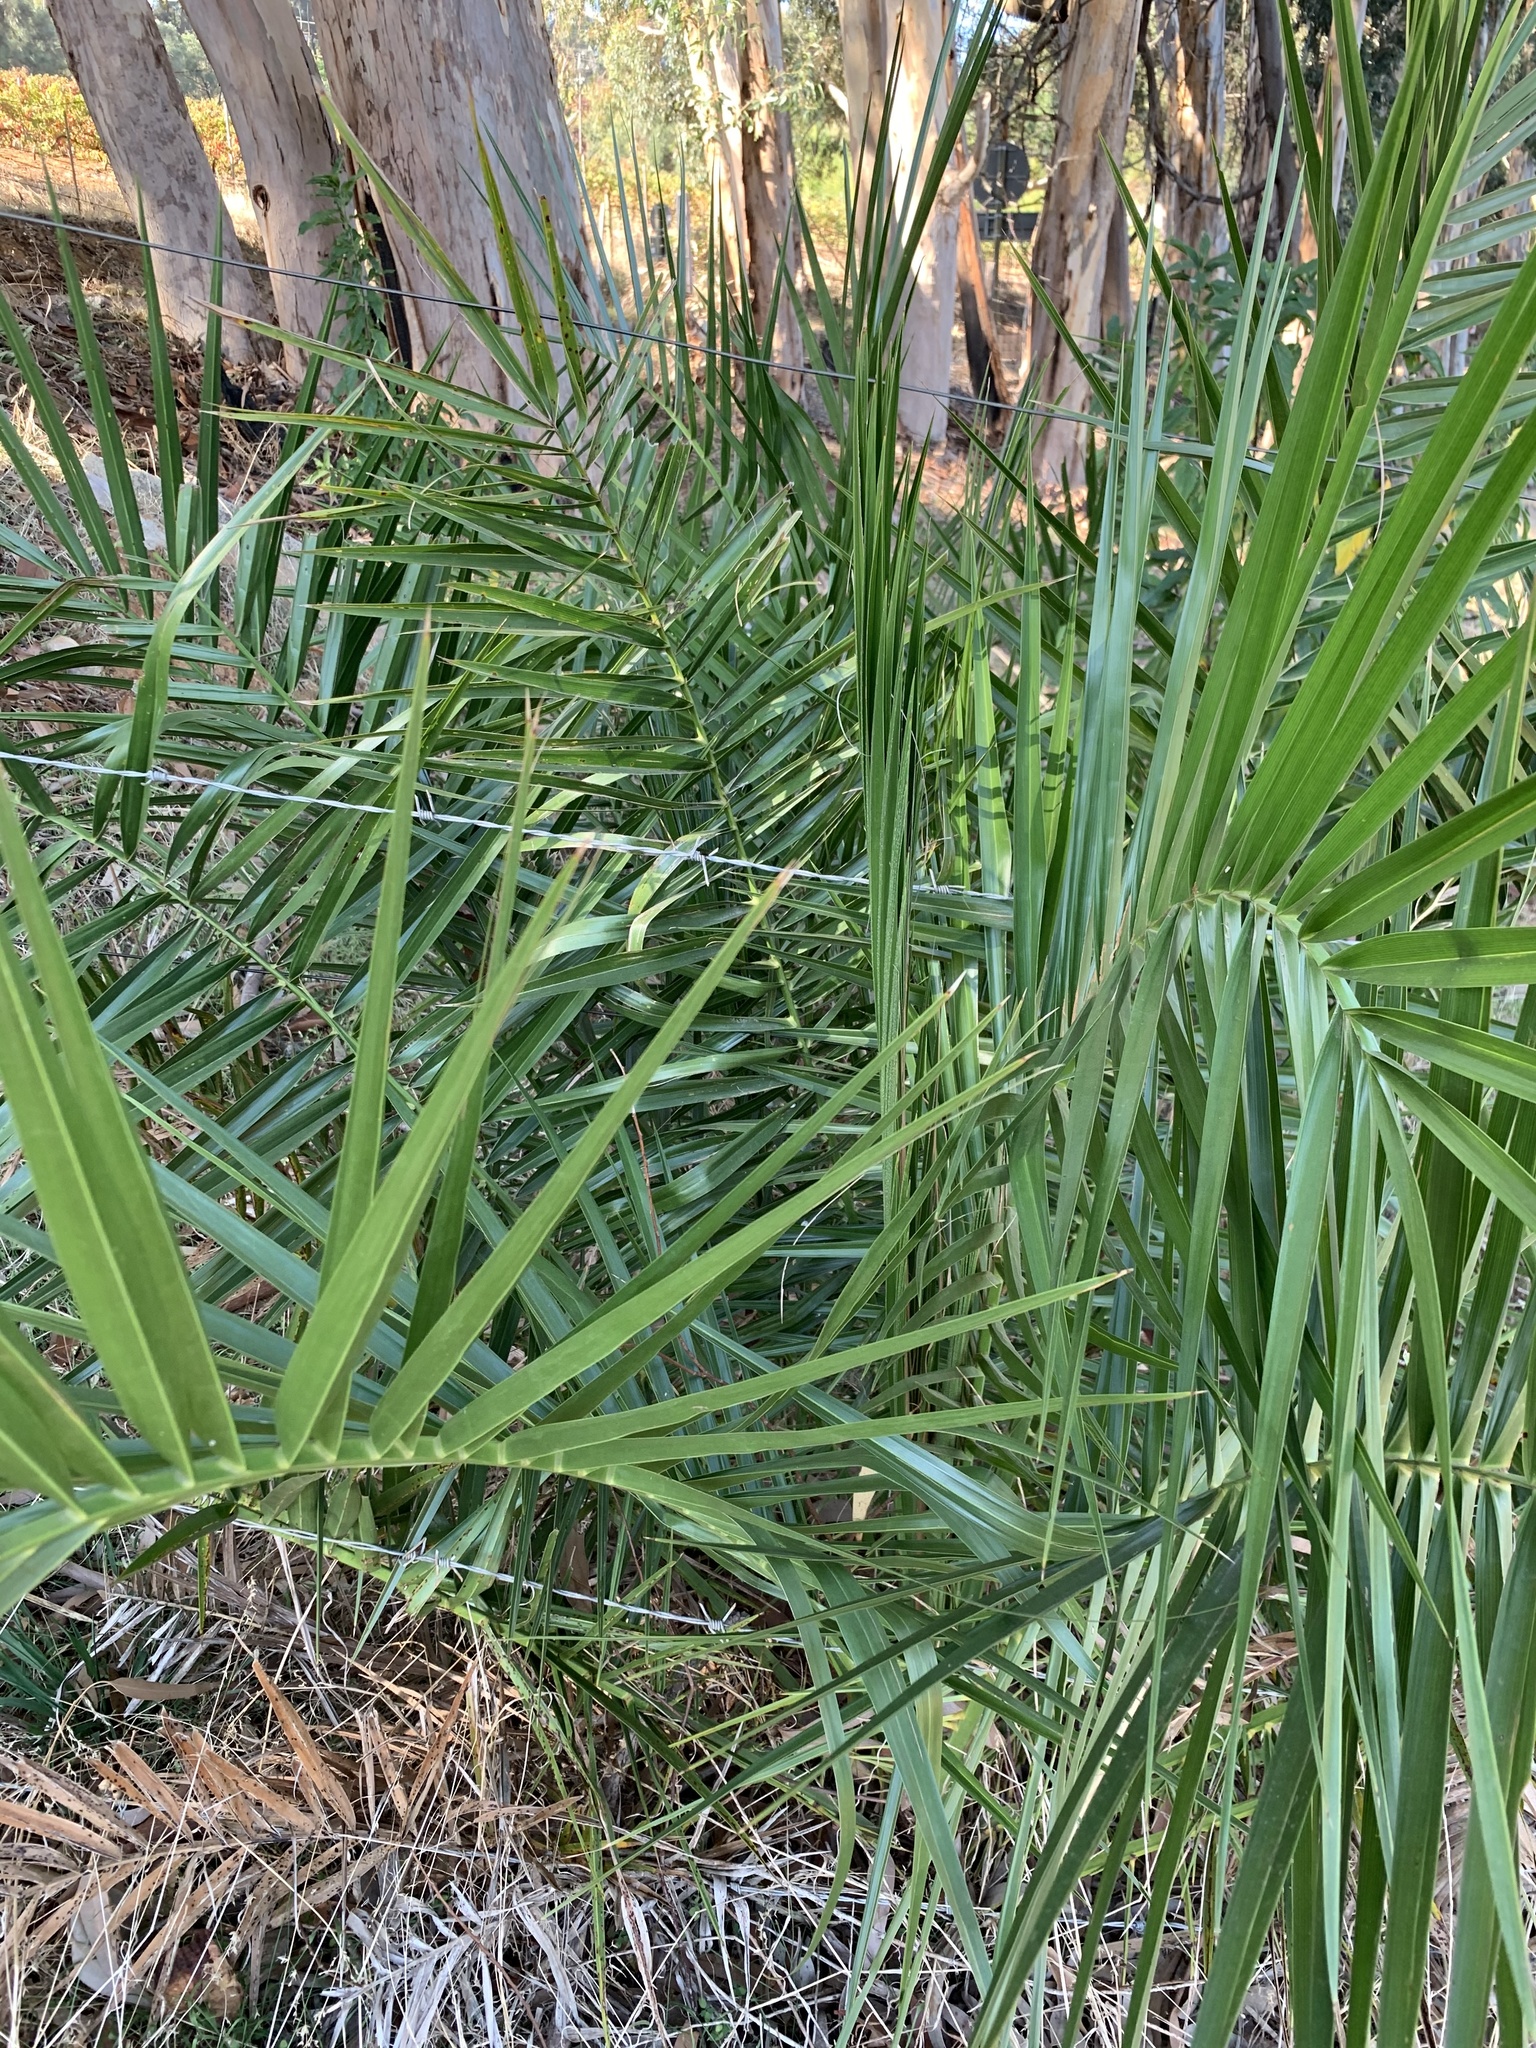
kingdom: Plantae
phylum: Tracheophyta
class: Liliopsida
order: Arecales
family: Arecaceae
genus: Phoenix
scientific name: Phoenix canariensis
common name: Canary island date palm
